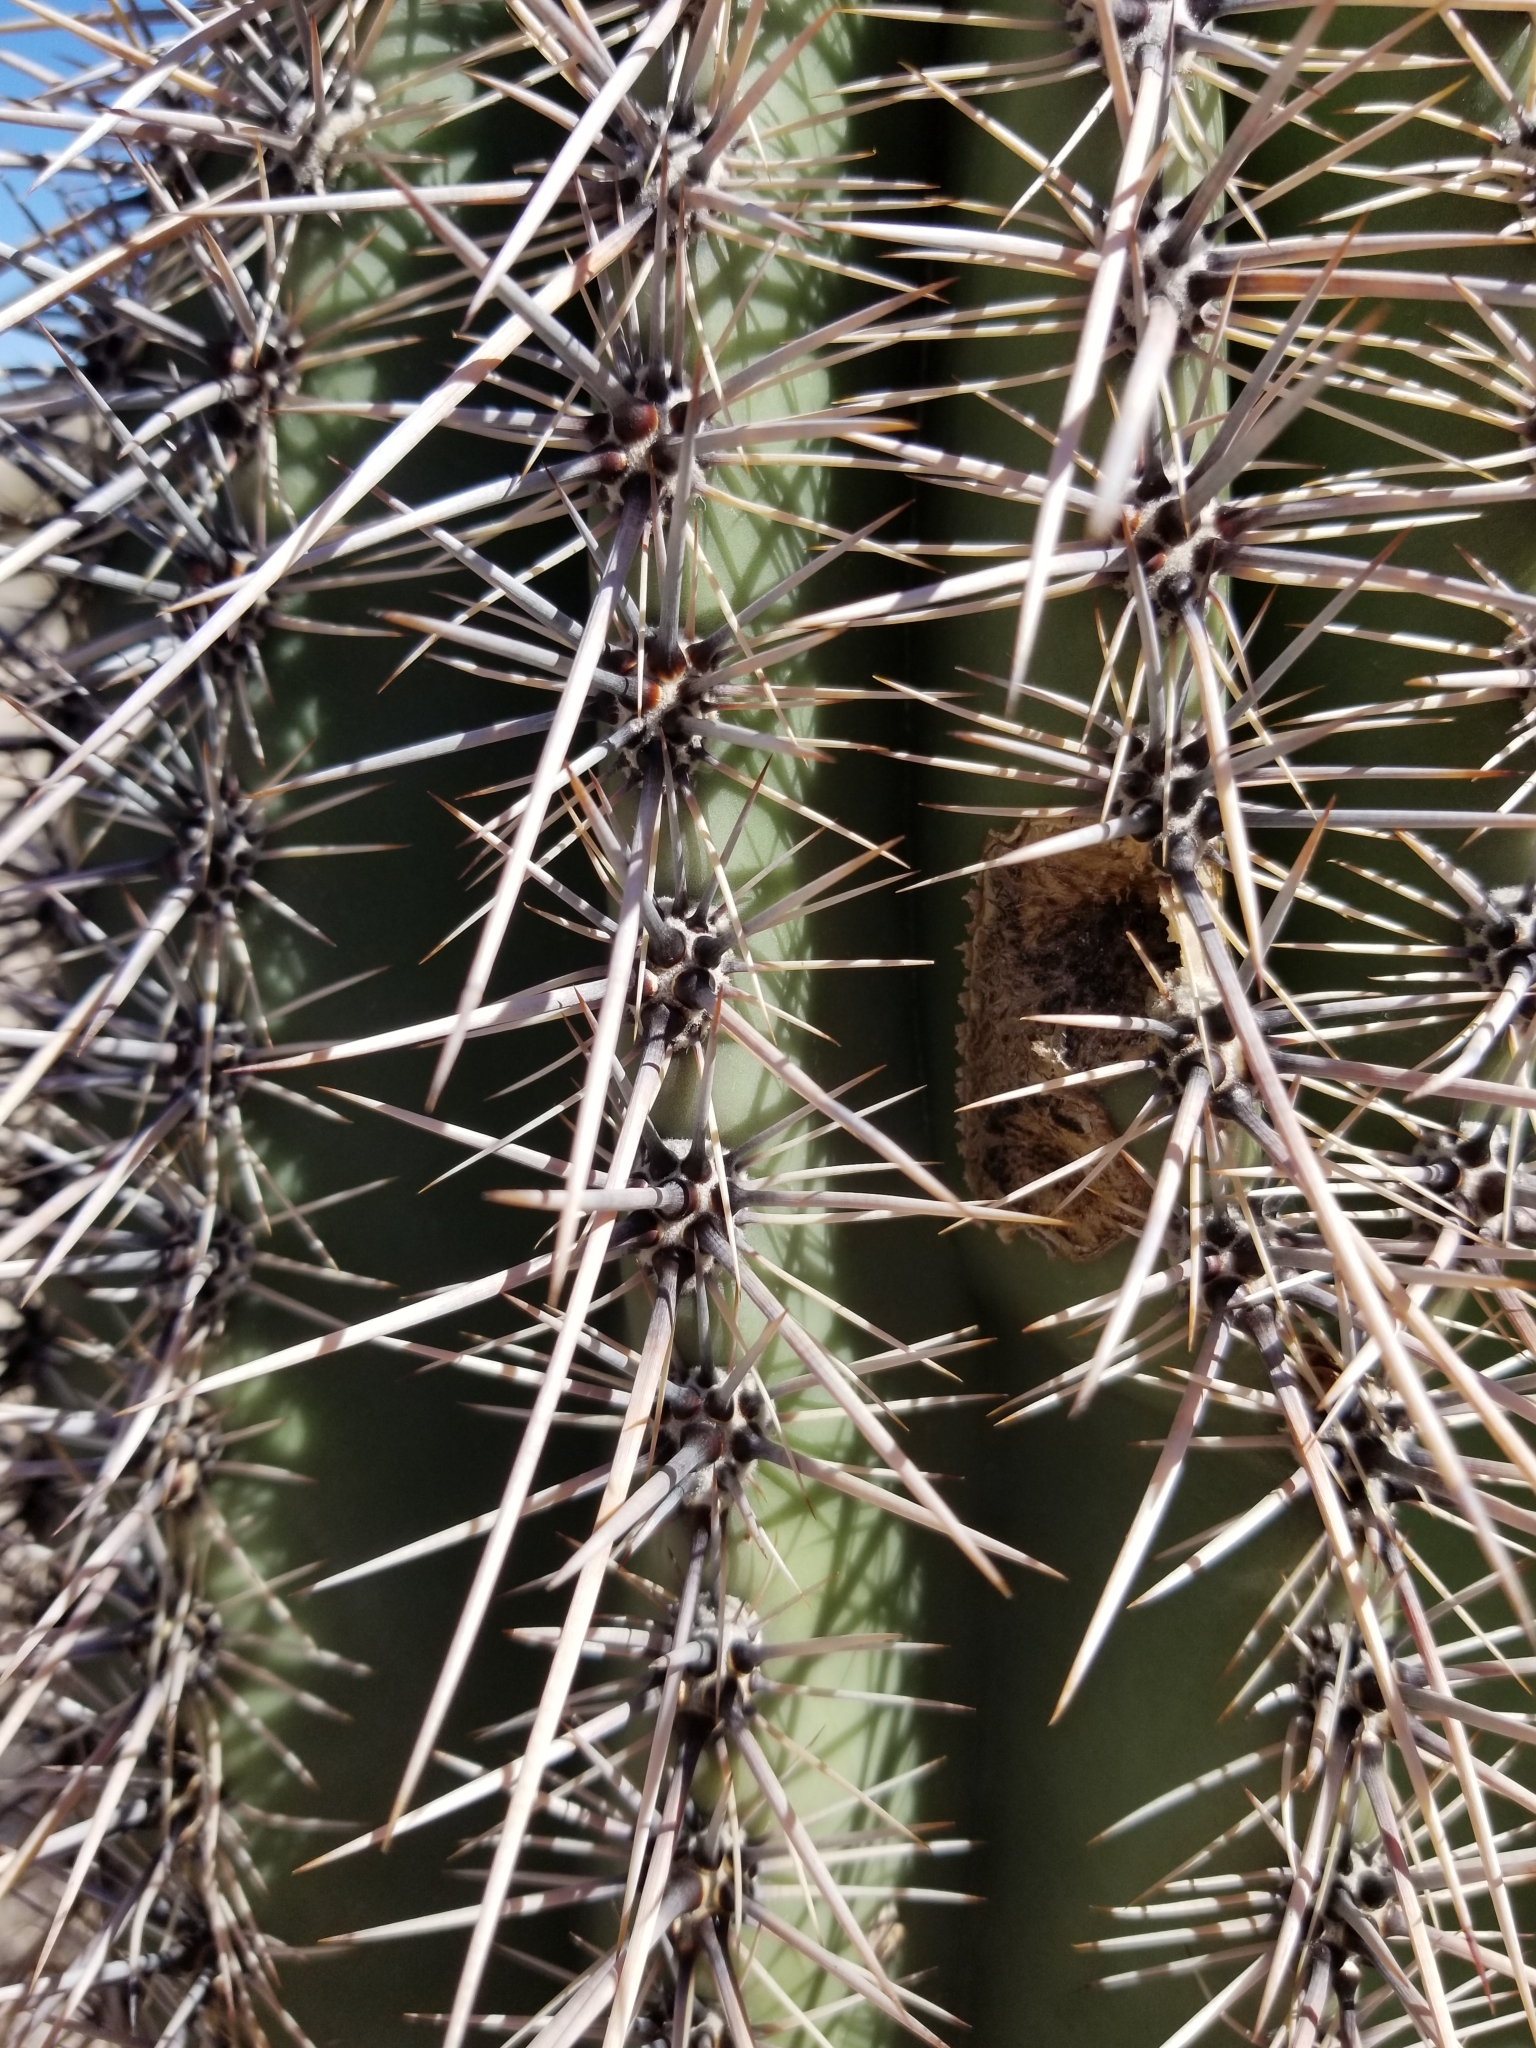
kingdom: Plantae
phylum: Tracheophyta
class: Magnoliopsida
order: Caryophyllales
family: Cactaceae
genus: Carnegiea
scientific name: Carnegiea gigantea
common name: Saguaro
